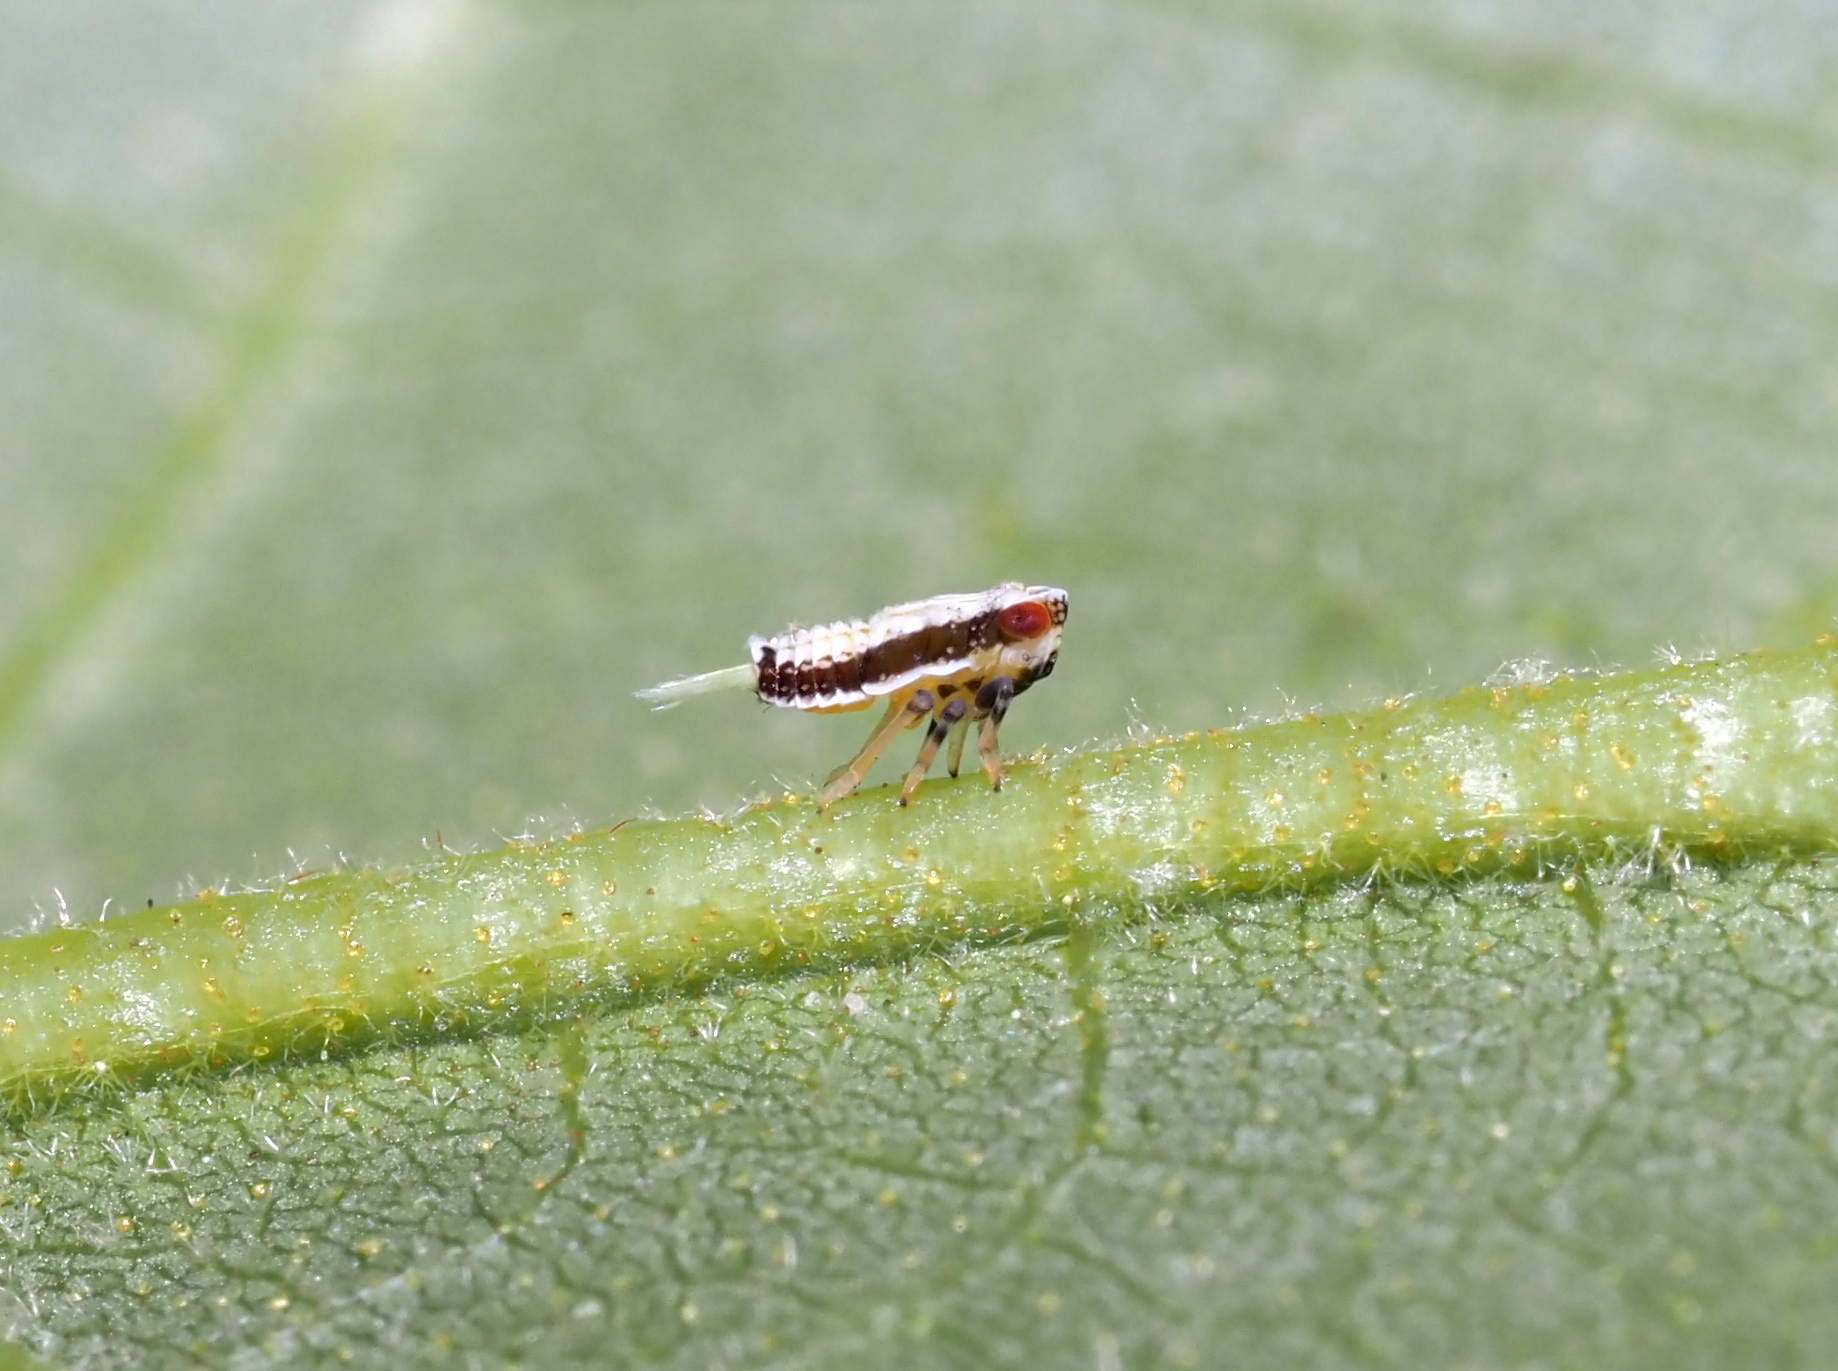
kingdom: Animalia
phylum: Arthropoda
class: Insecta
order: Hemiptera
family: Issidae
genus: Thionia
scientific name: Thionia bullata
